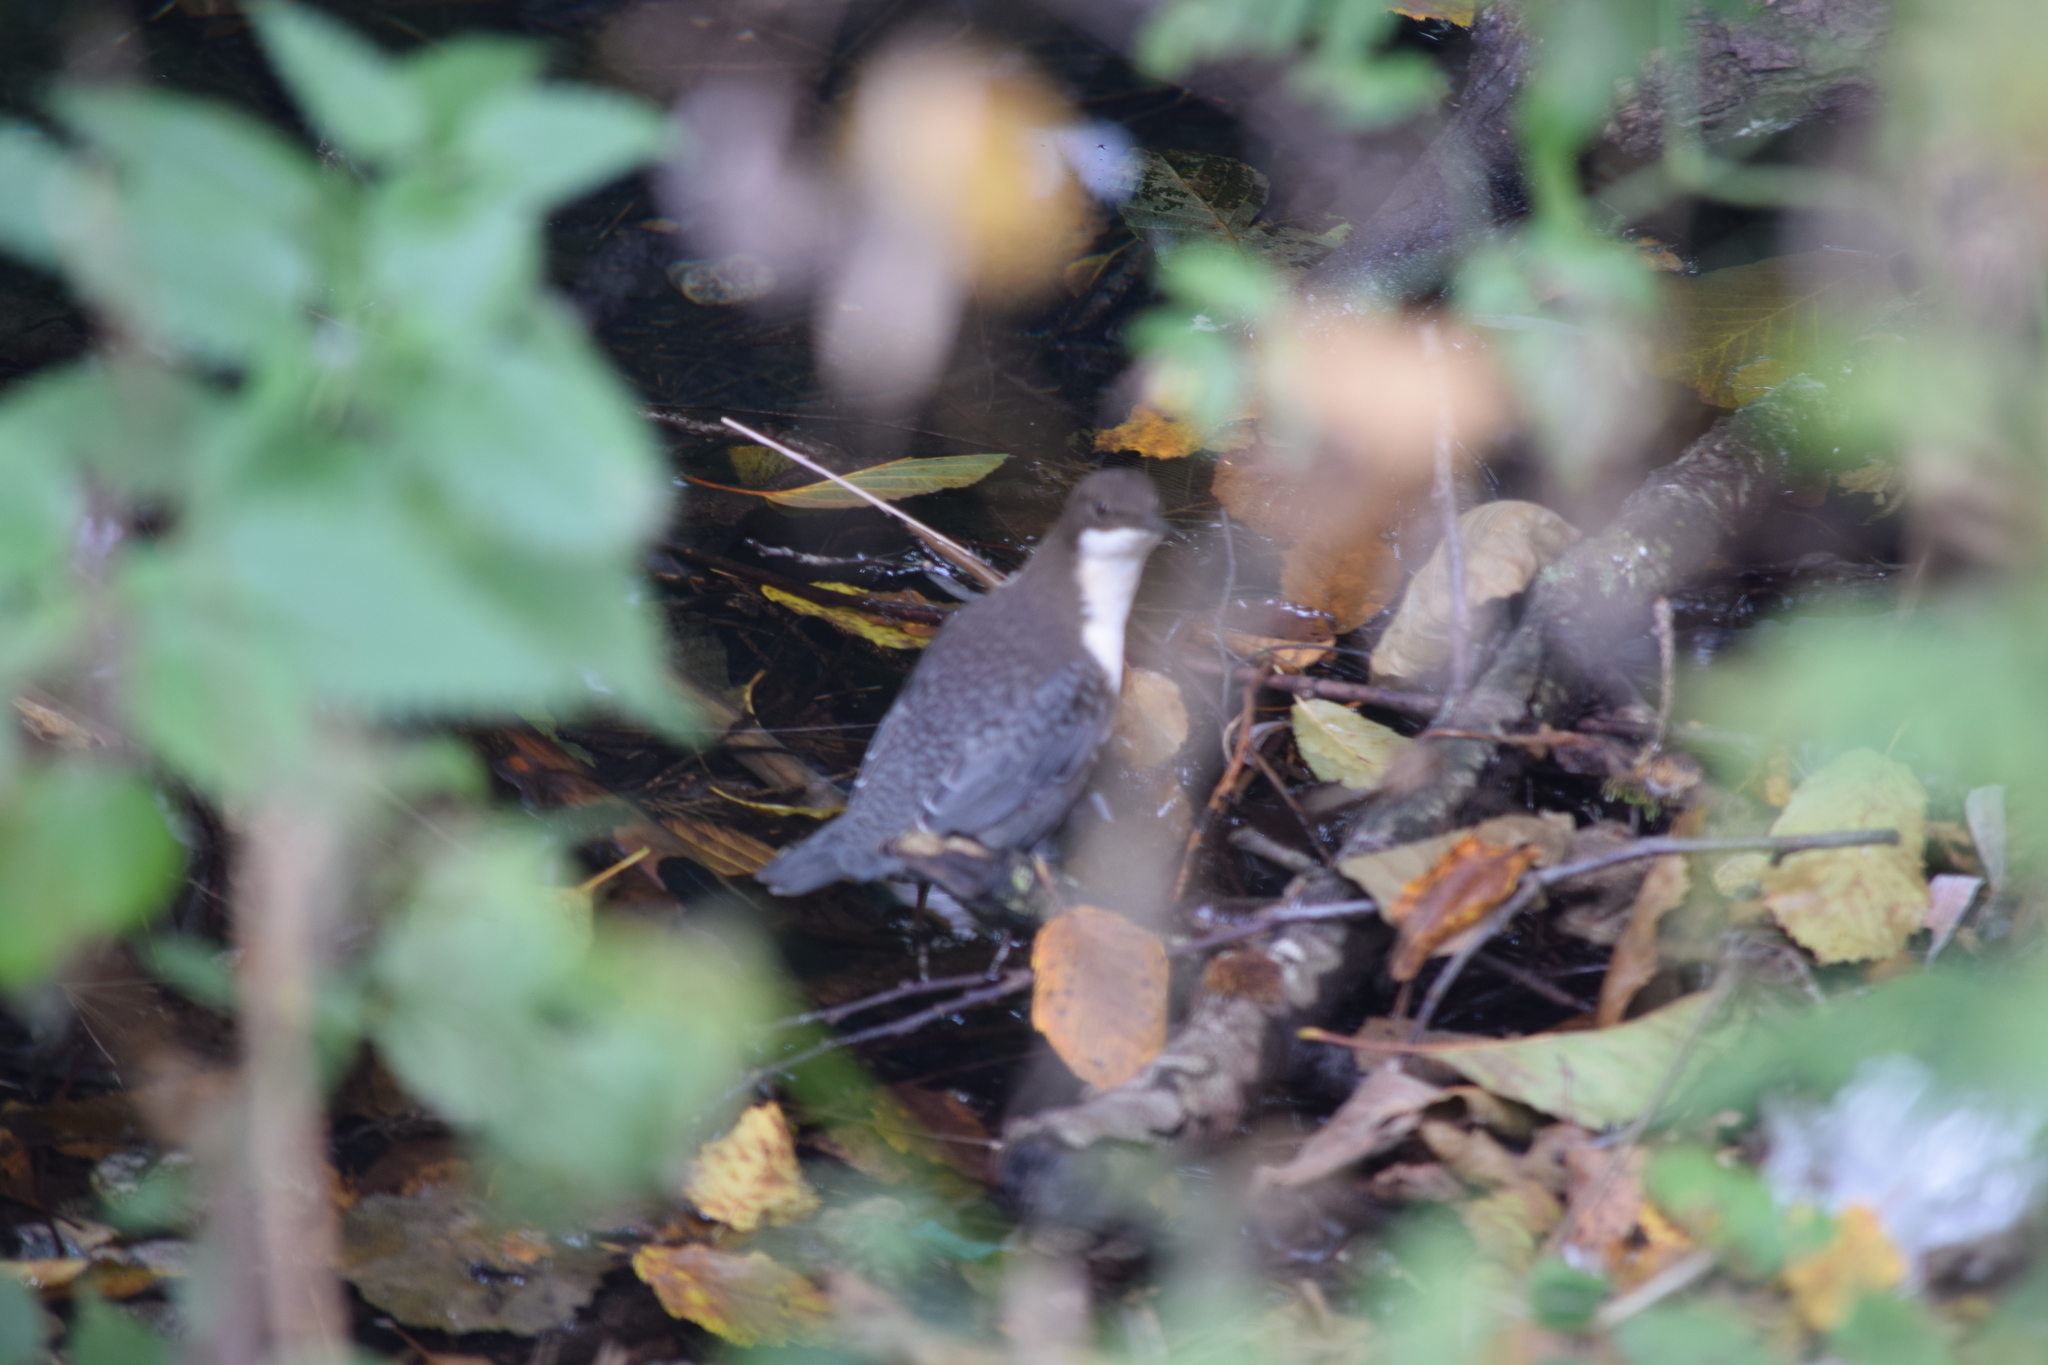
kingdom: Animalia
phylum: Chordata
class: Aves
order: Passeriformes
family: Cinclidae
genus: Cinclus
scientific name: Cinclus cinclus
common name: White-throated dipper
